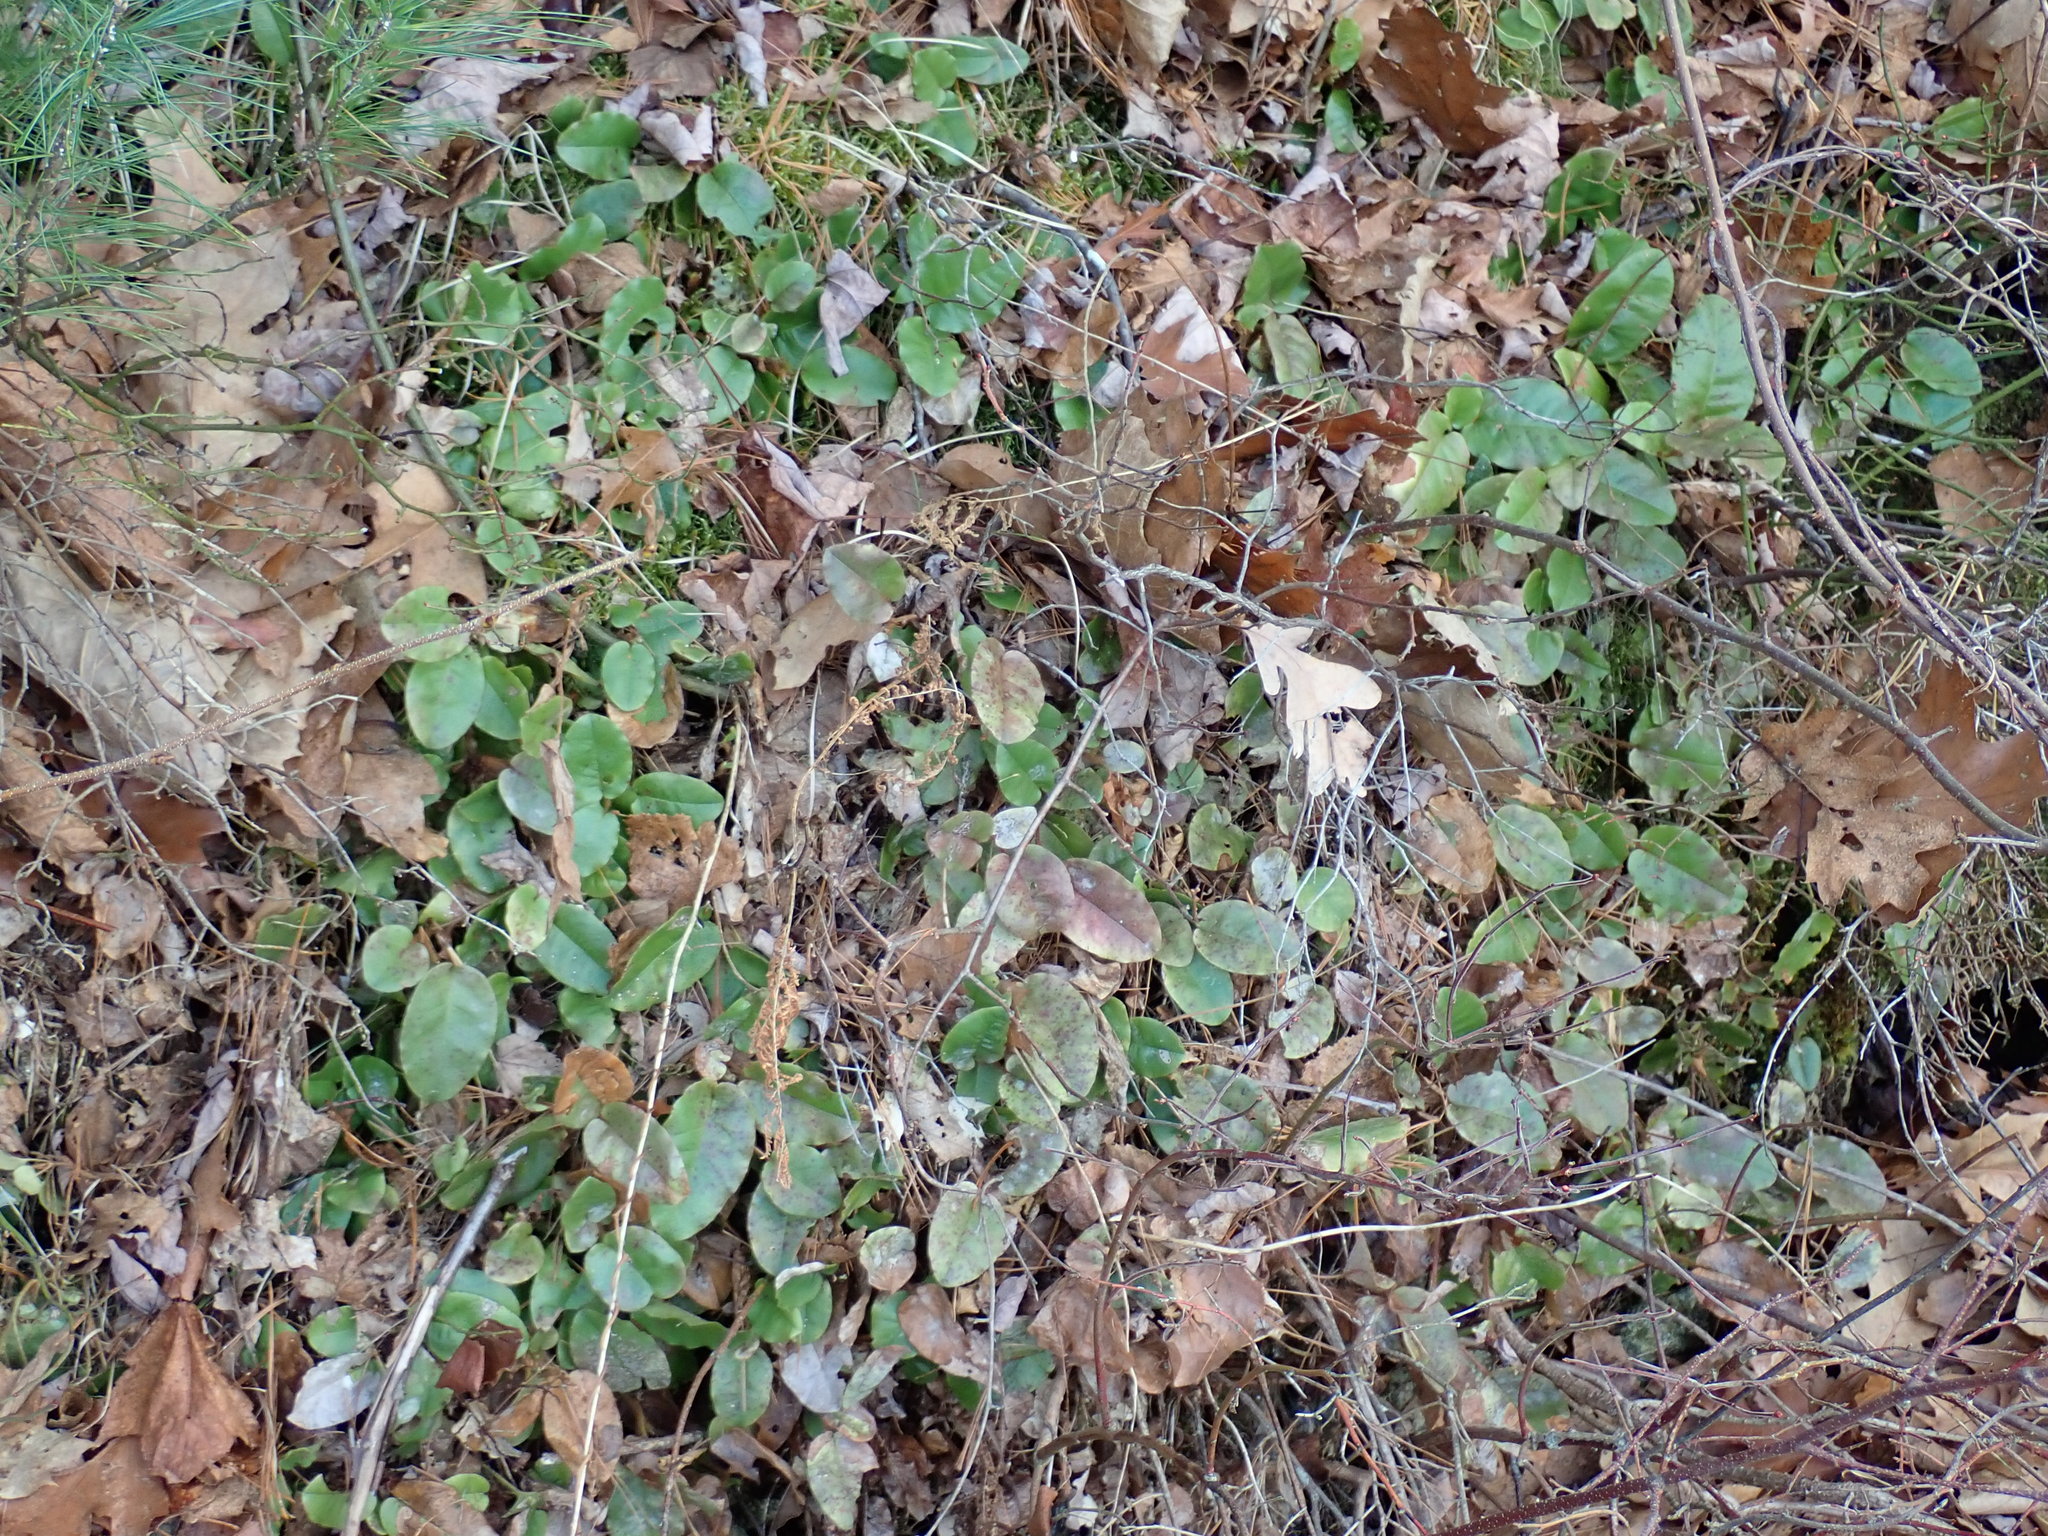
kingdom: Plantae
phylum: Tracheophyta
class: Magnoliopsida
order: Ericales
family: Ericaceae
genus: Epigaea
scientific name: Epigaea repens
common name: Gravelroot
